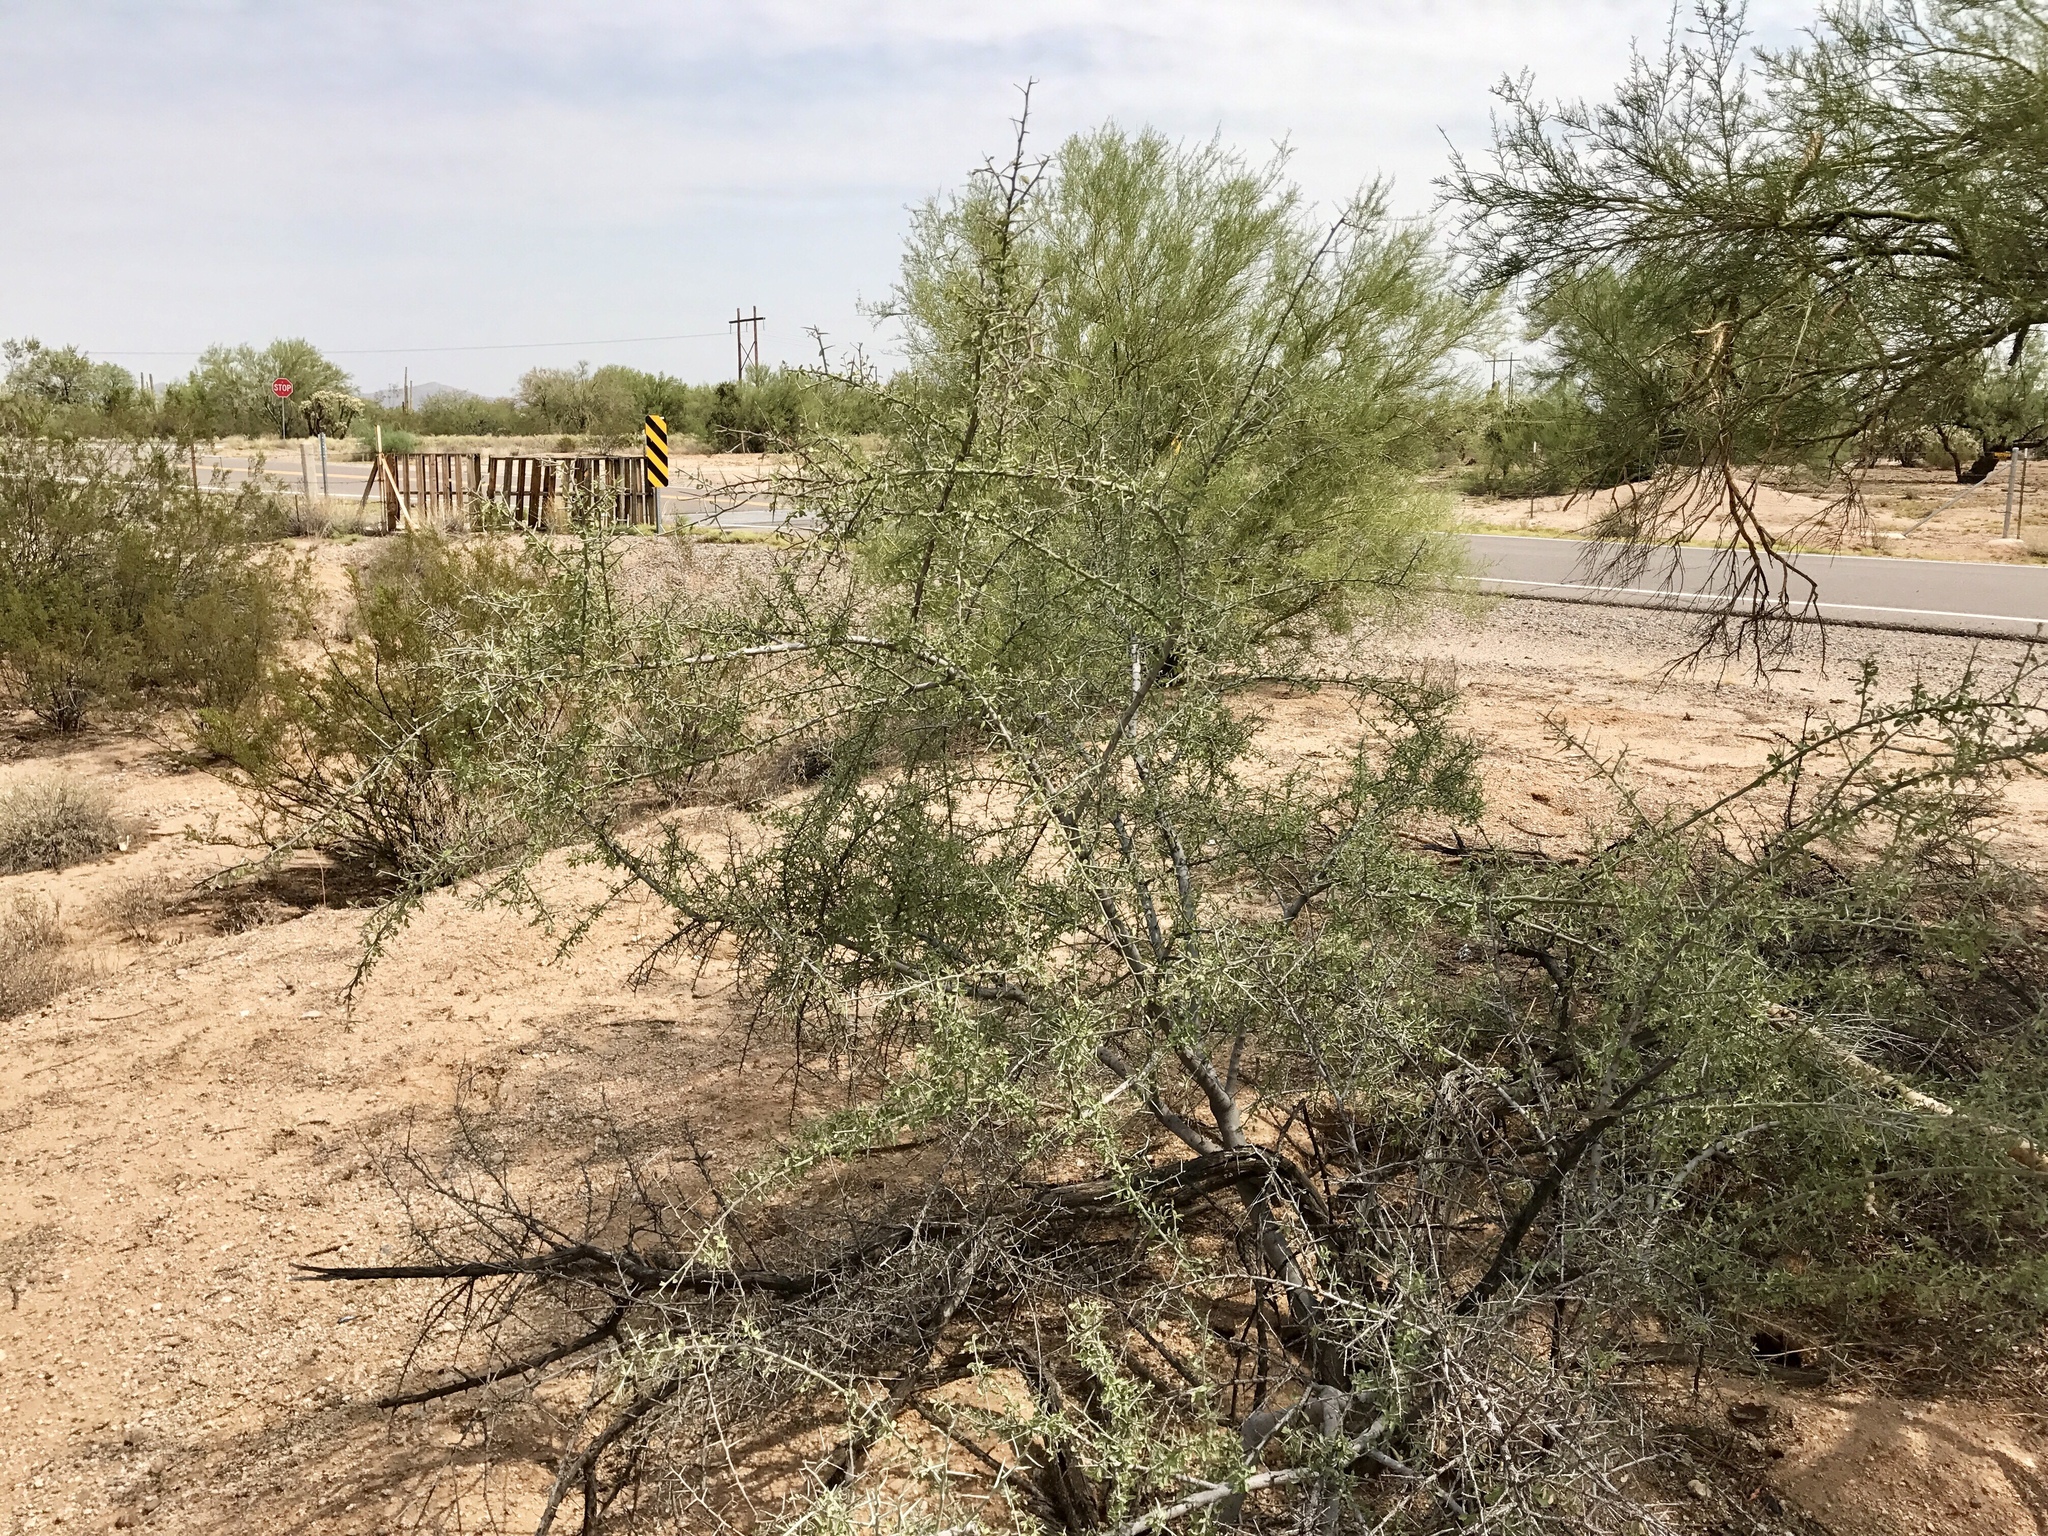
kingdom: Plantae
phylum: Tracheophyta
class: Magnoliopsida
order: Rosales
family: Rhamnaceae
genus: Sarcomphalus
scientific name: Sarcomphalus obtusifolius
